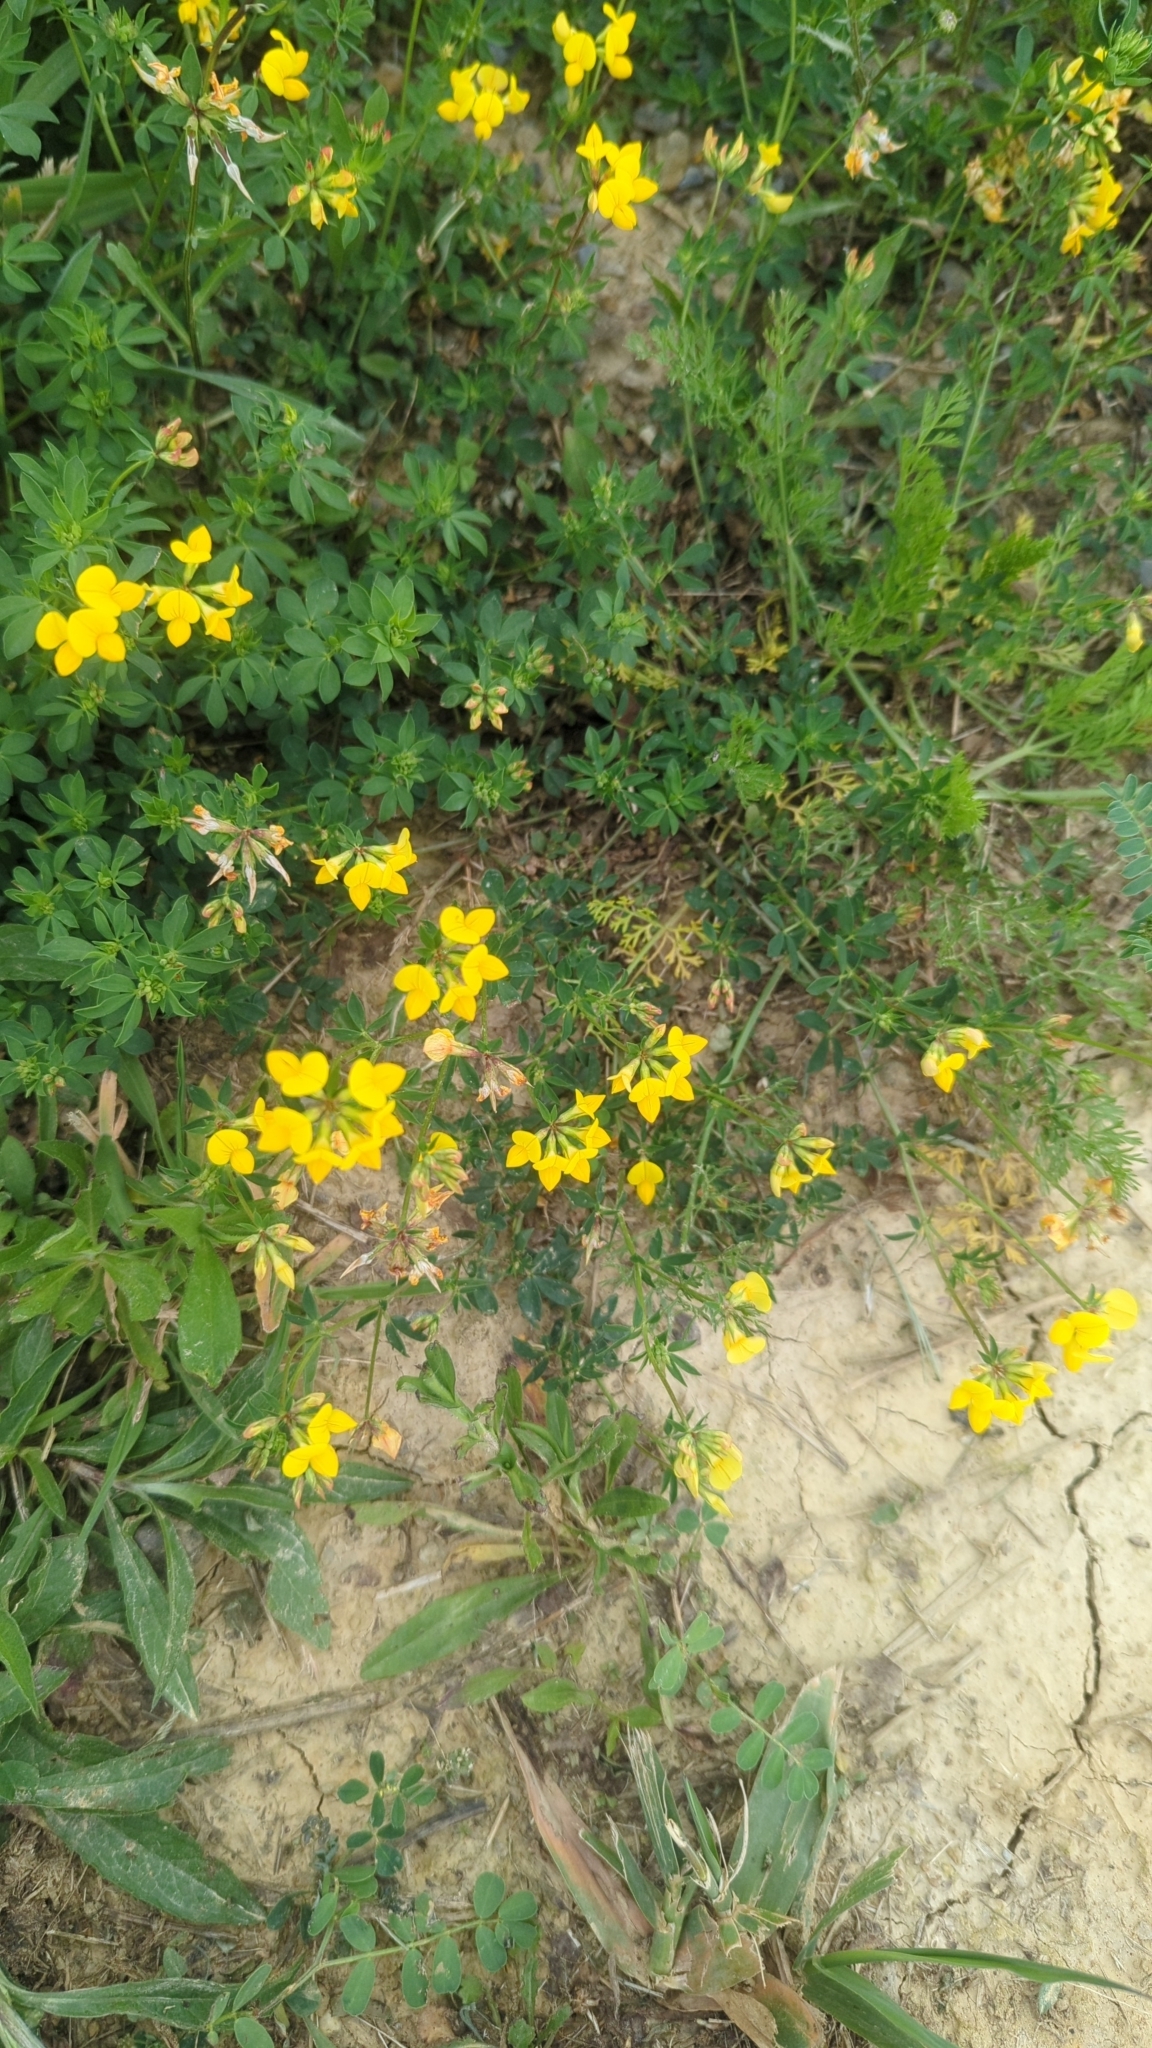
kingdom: Plantae
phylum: Tracheophyta
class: Magnoliopsida
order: Fabales
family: Fabaceae
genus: Lotus
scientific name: Lotus corniculatus
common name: Common bird's-foot-trefoil
